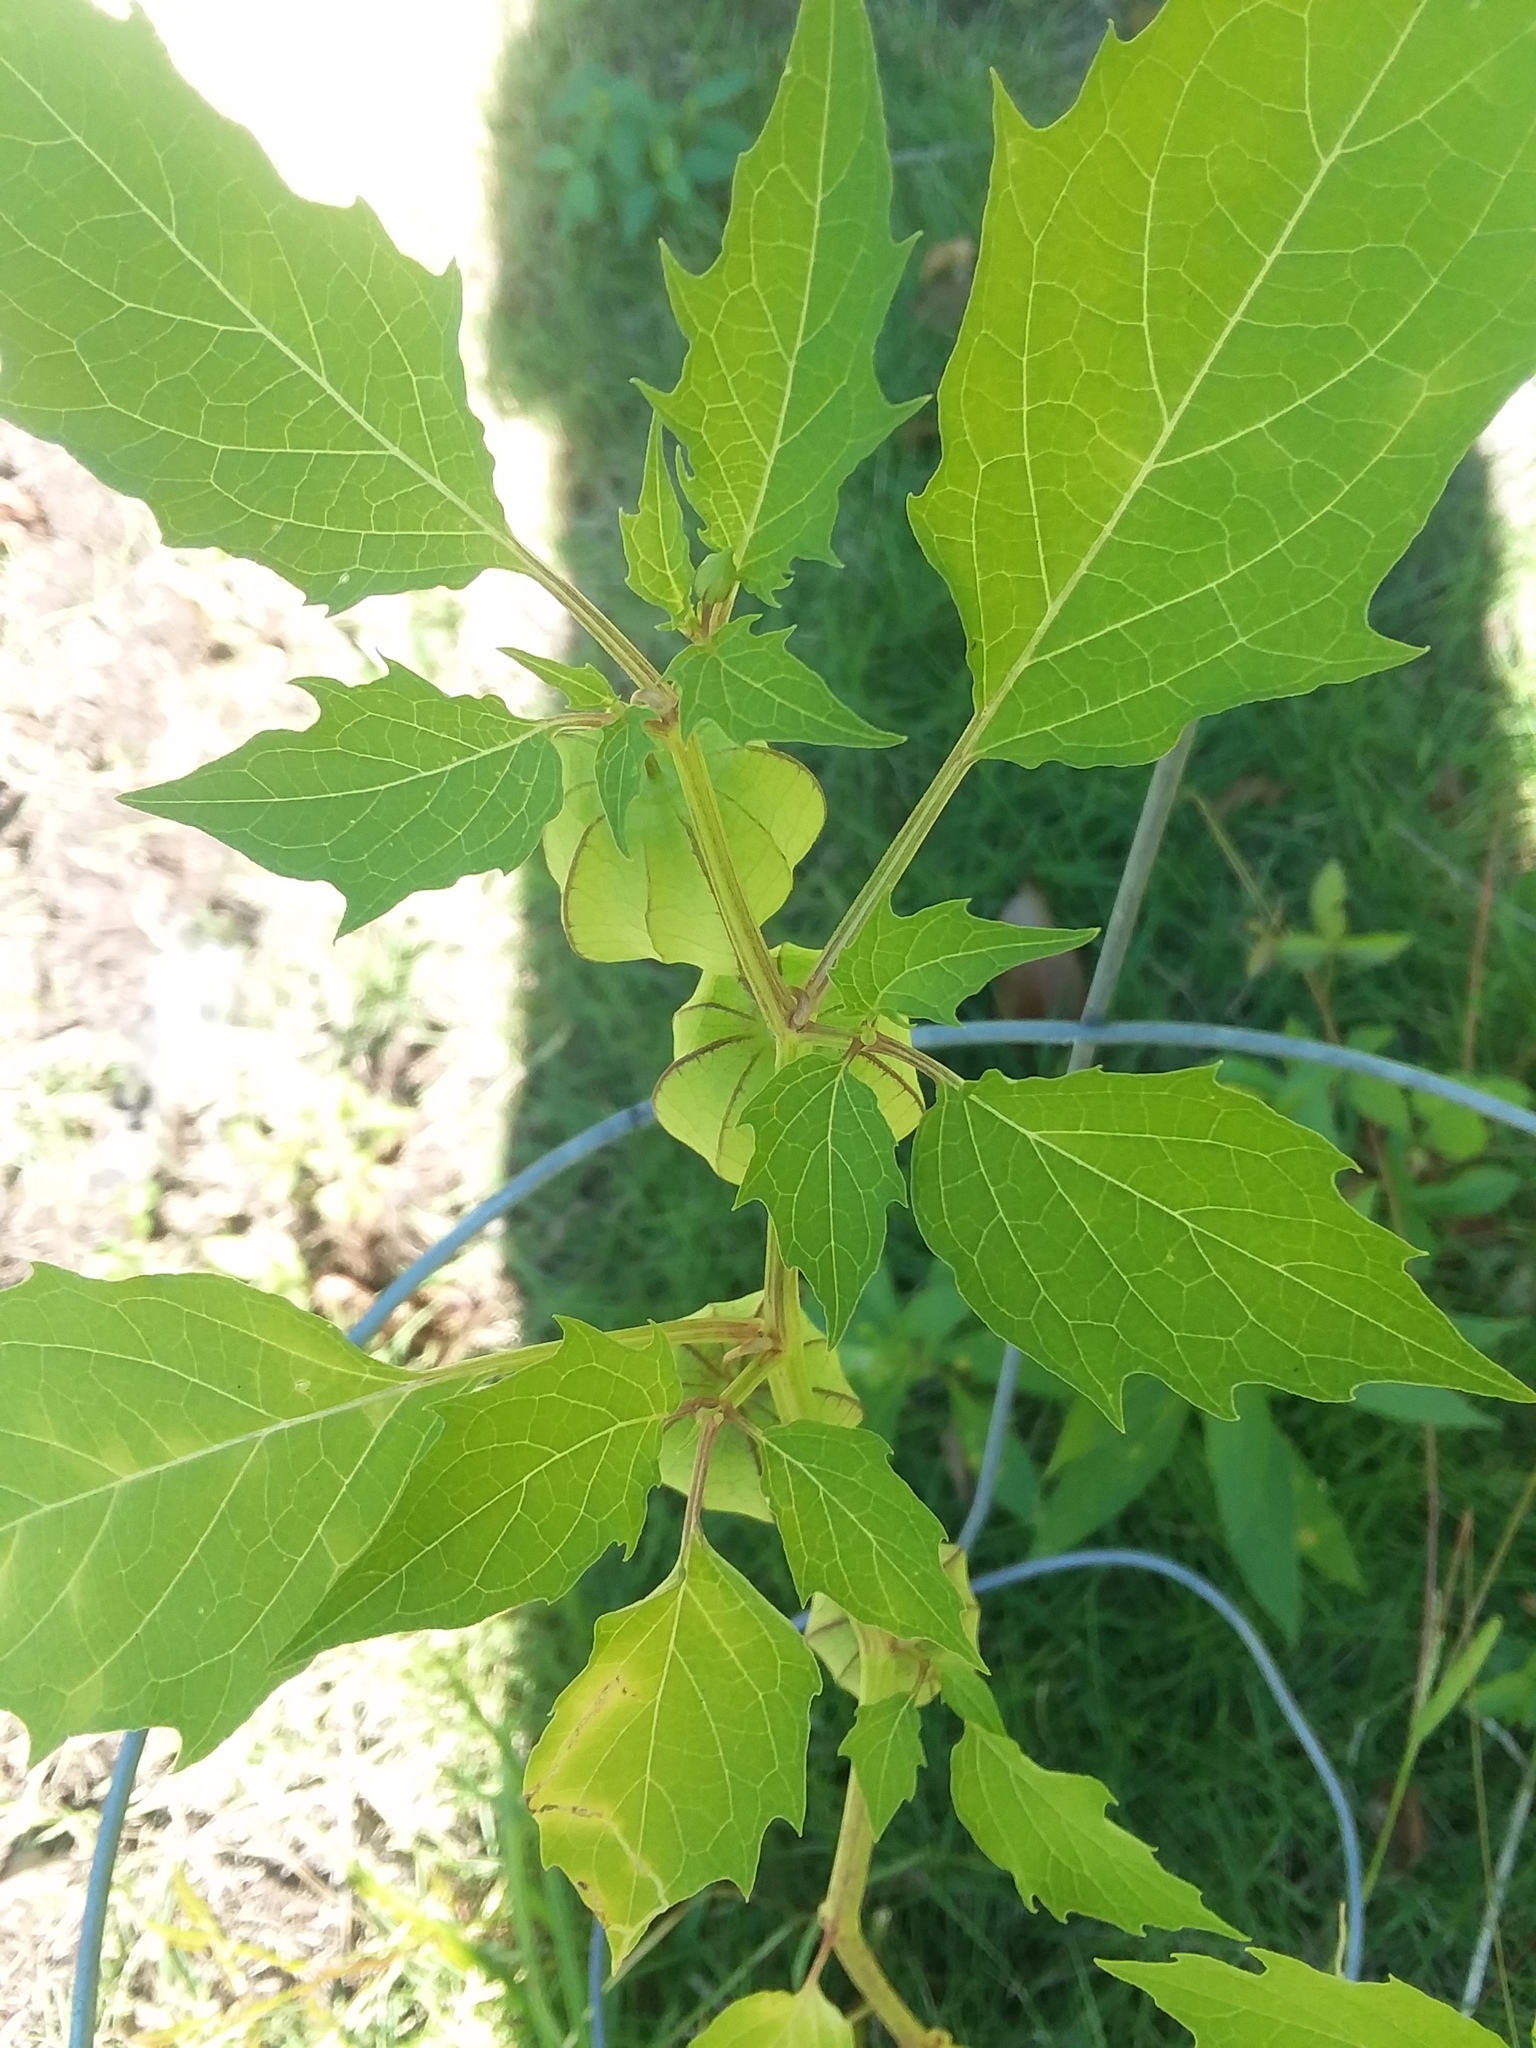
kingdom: Plantae
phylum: Tracheophyta
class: Magnoliopsida
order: Solanales
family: Solanaceae
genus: Physalis
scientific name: Physalis angulata
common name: Angular winter-cherry
